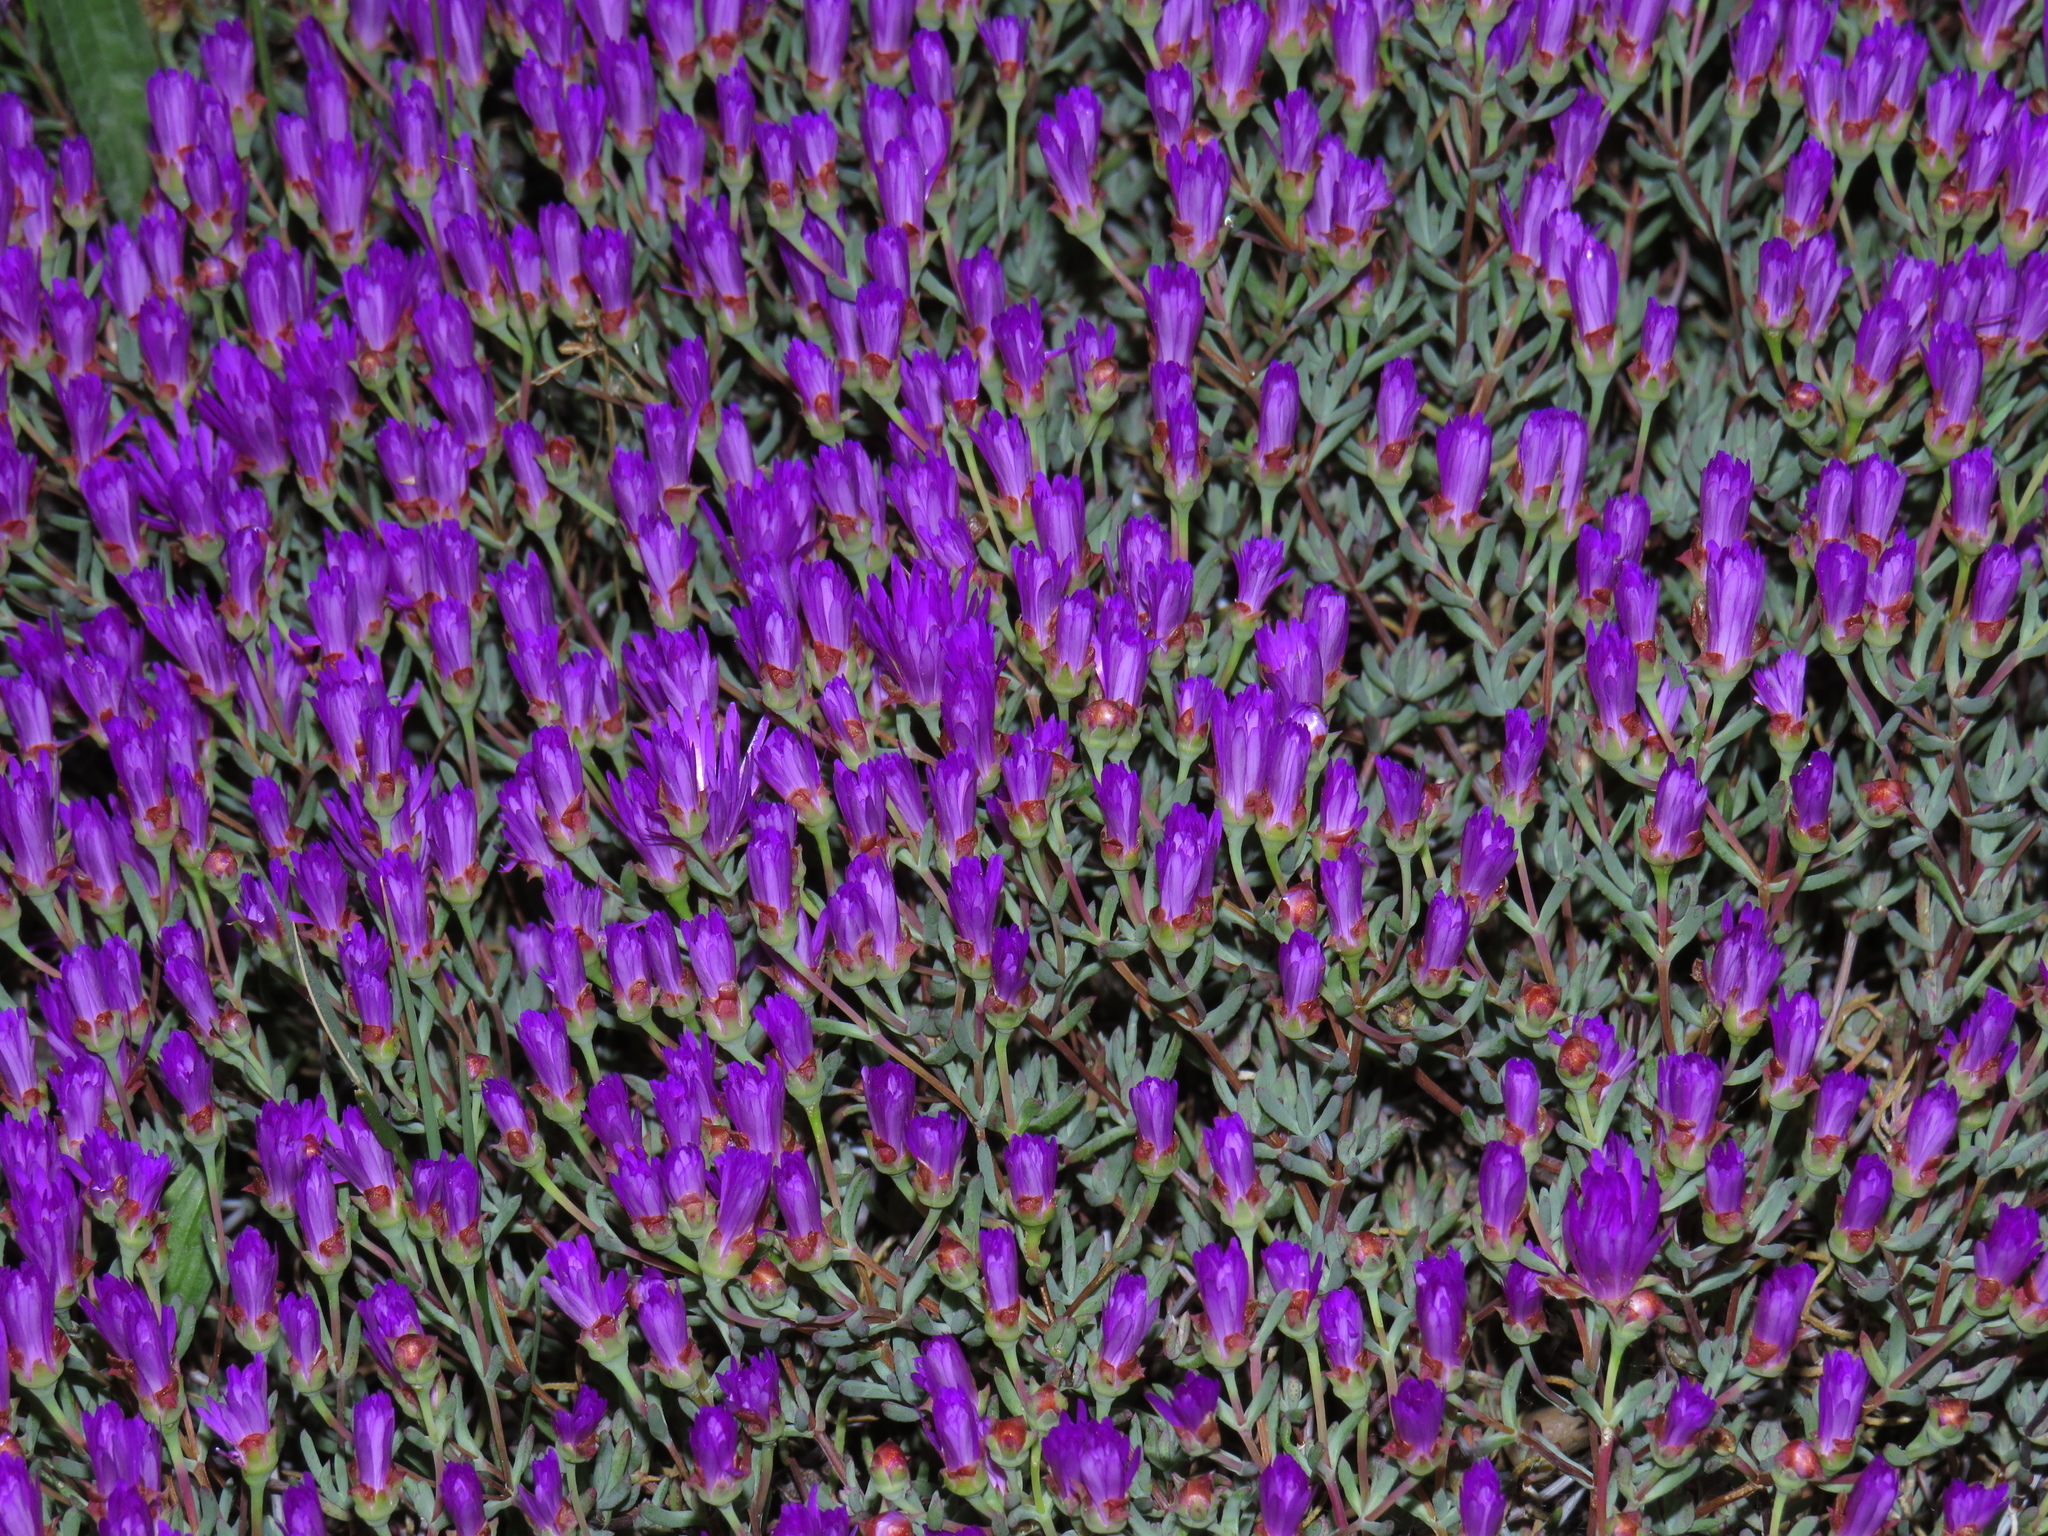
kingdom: Plantae
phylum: Tracheophyta
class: Magnoliopsida
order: Caryophyllales
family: Aizoaceae
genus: Lampranthus
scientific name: Lampranthus emarginatus
